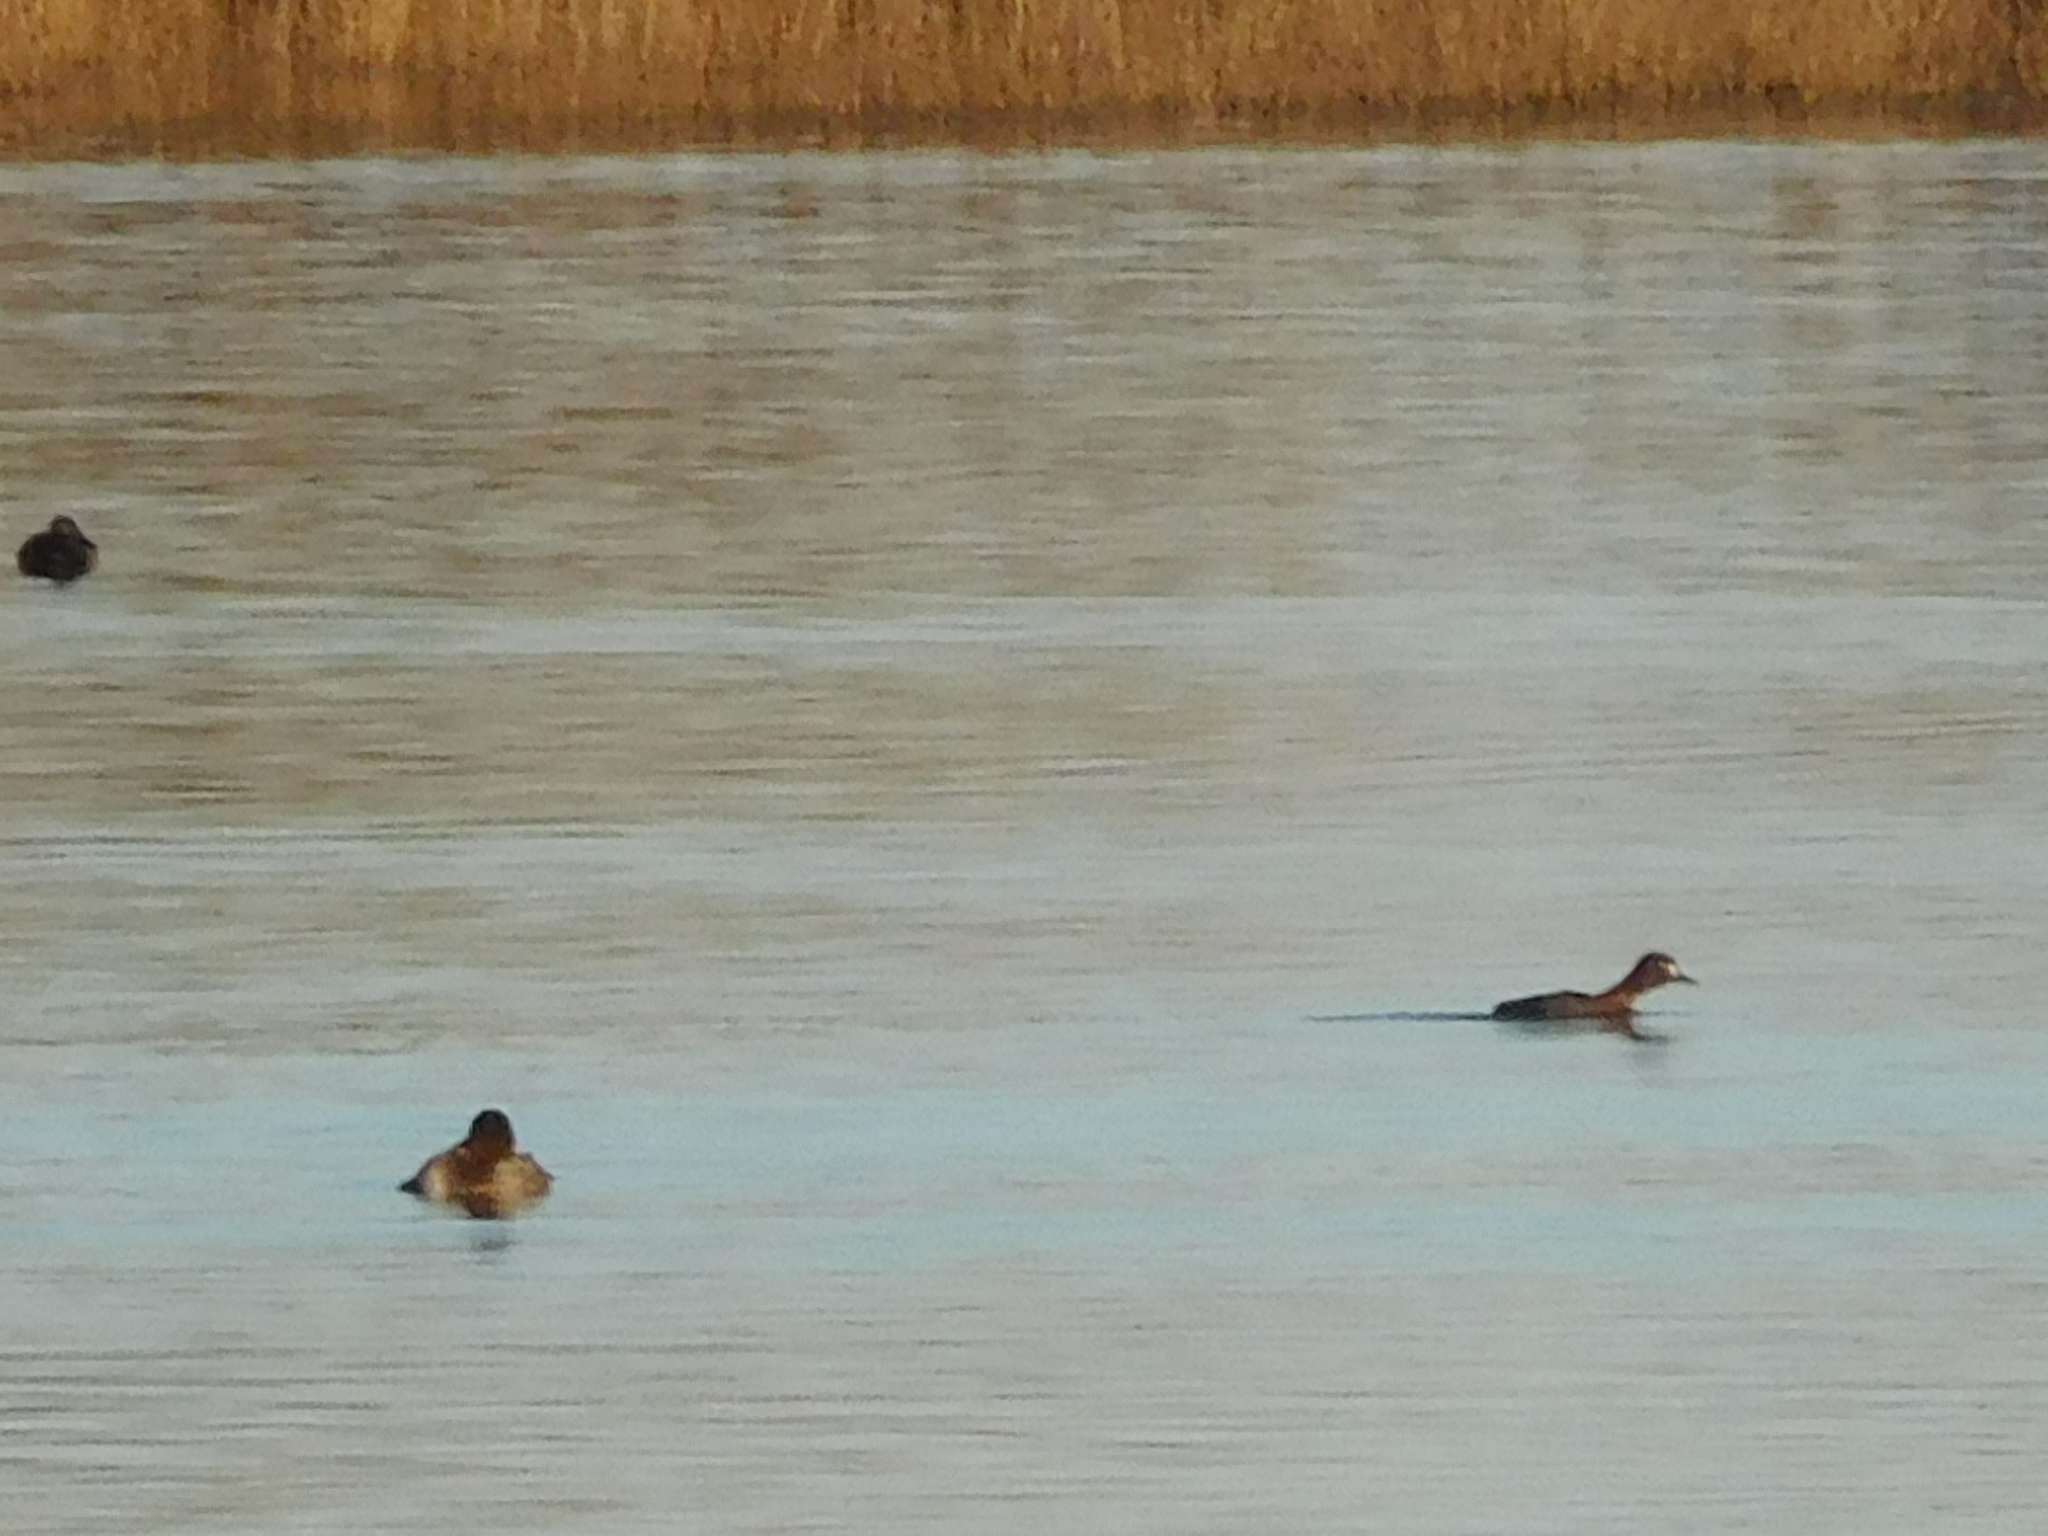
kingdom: Animalia
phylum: Chordata
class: Aves
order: Anseriformes
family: Anatidae
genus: Aythya
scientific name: Aythya fuligula
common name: Tufted duck
